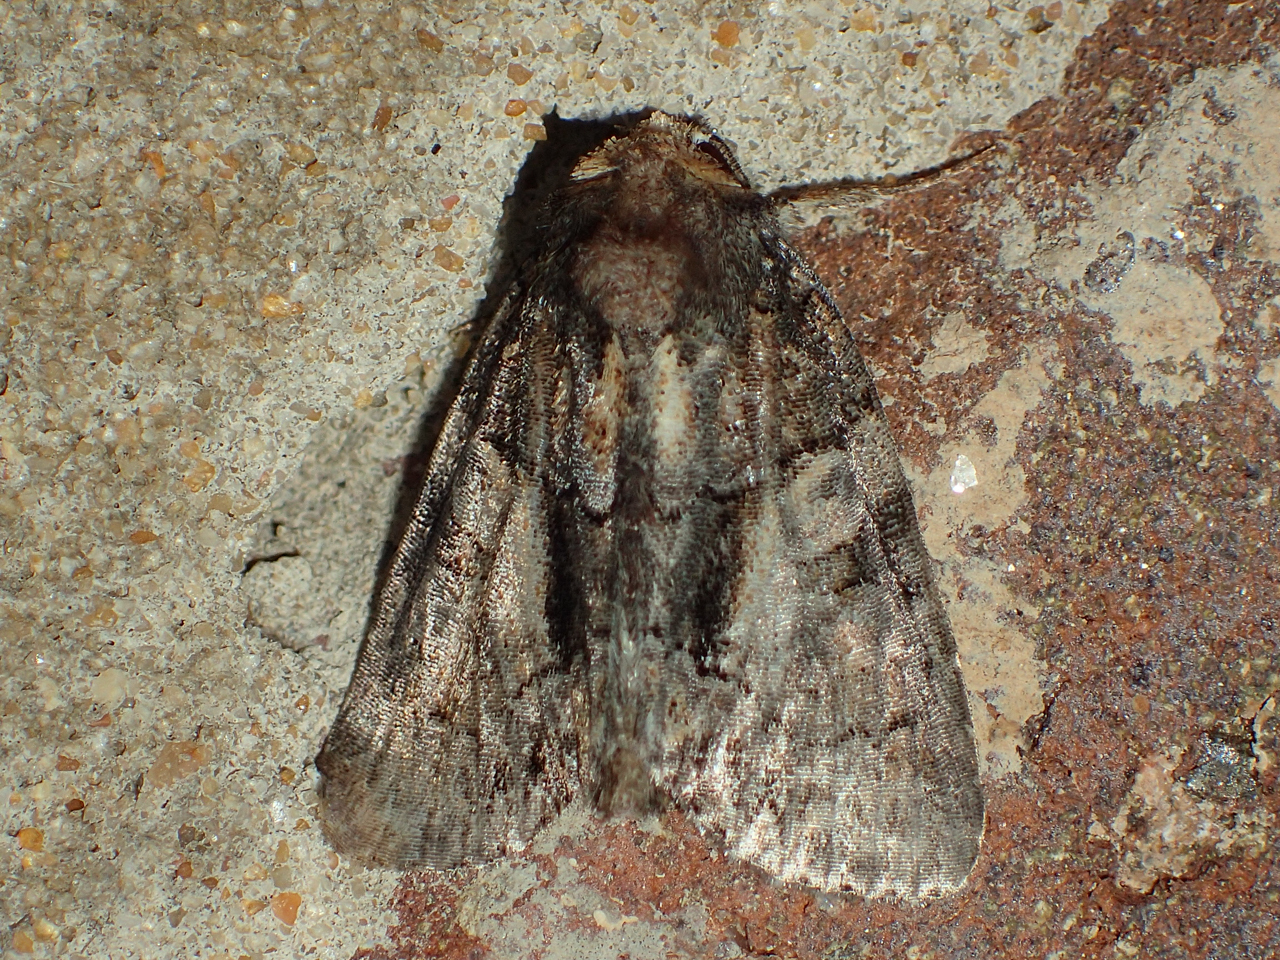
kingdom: Animalia
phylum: Arthropoda
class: Insecta
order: Lepidoptera
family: Noctuidae
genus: Chytonix
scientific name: Chytonix palliatricula
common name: Cloaked marvel
